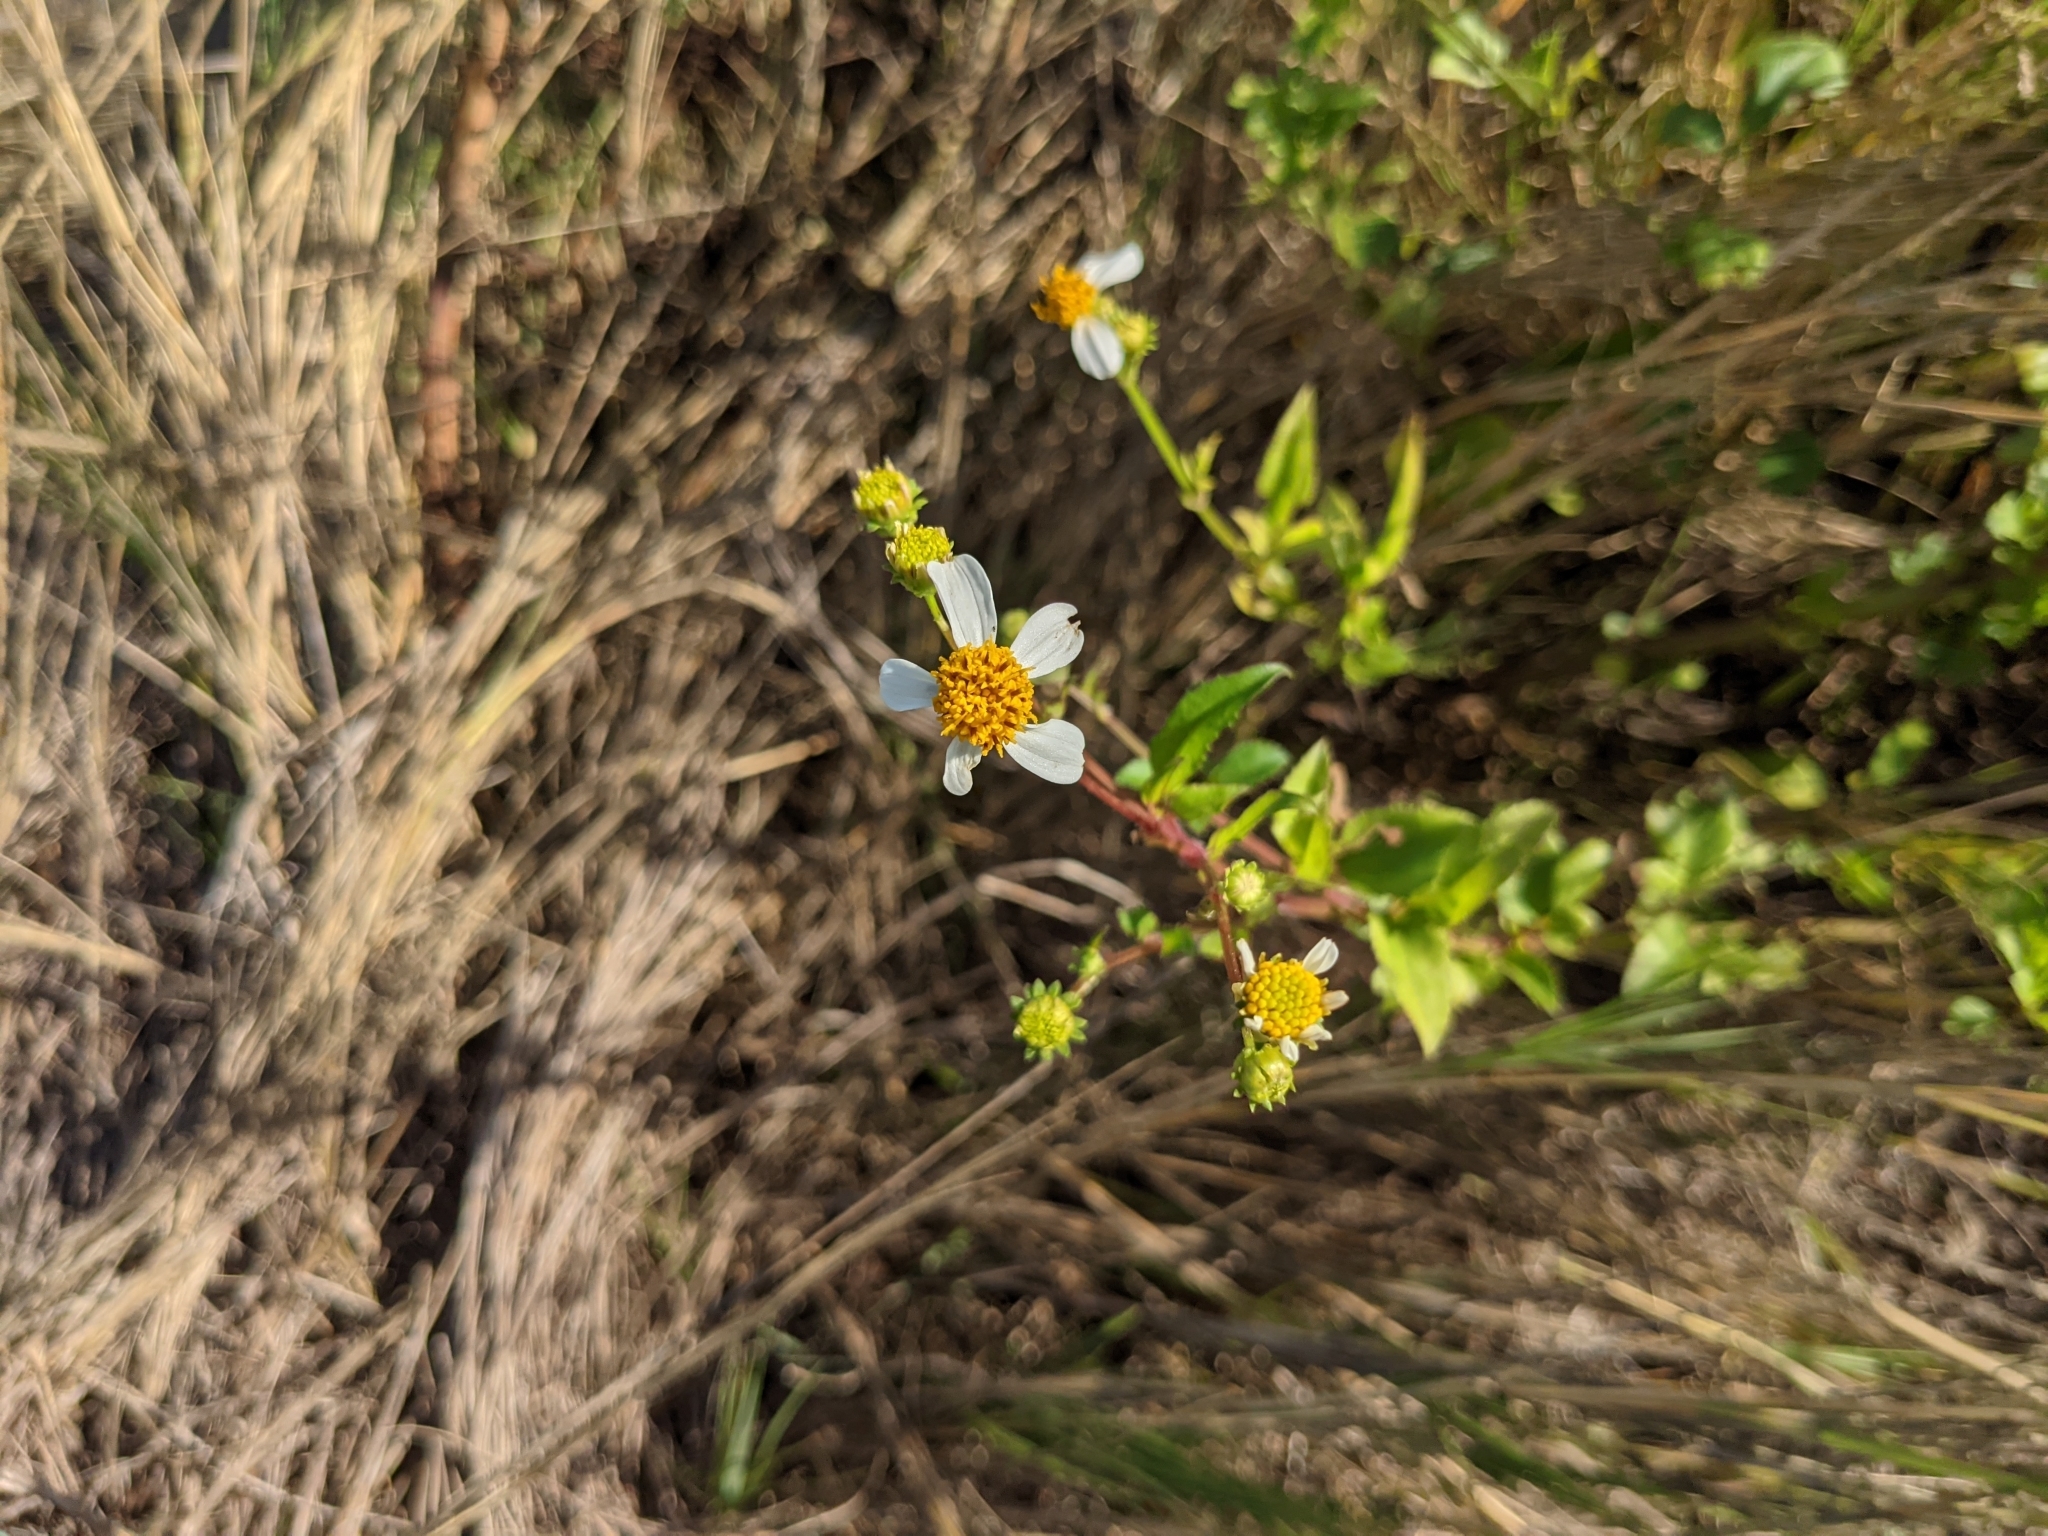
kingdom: Plantae
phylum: Tracheophyta
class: Magnoliopsida
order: Asterales
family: Asteraceae
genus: Bidens
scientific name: Bidens alba
